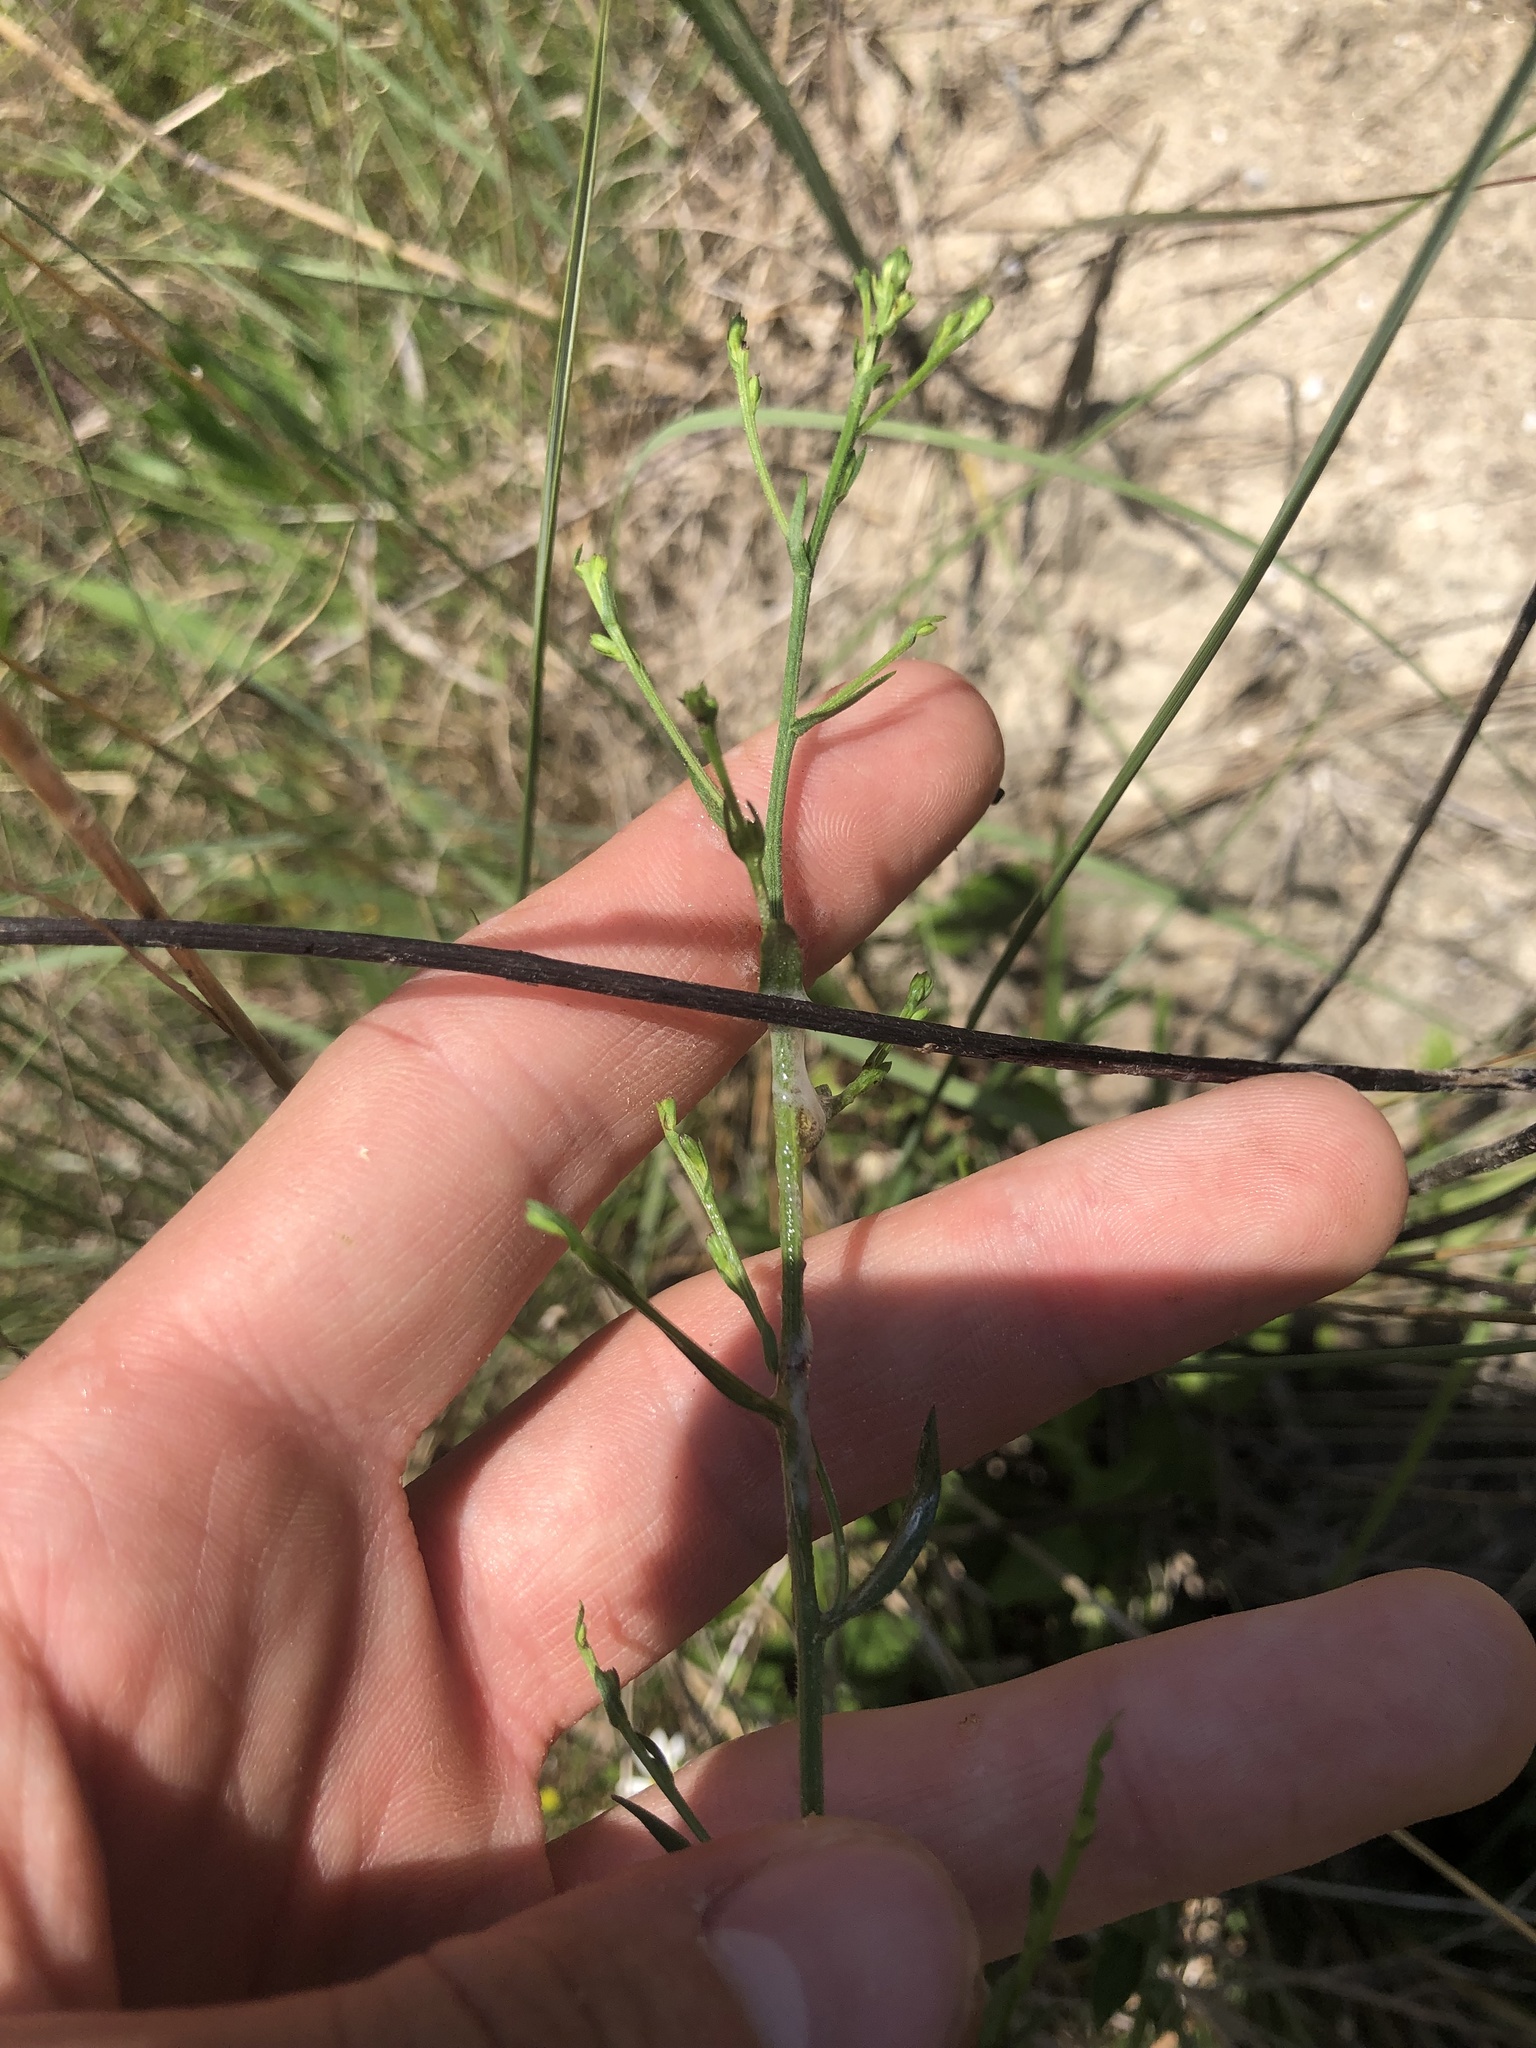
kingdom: Plantae
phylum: Tracheophyta
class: Magnoliopsida
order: Asterales
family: Asteraceae
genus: Symphyotrichum
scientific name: Symphyotrichum laeve
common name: Glaucous aster
